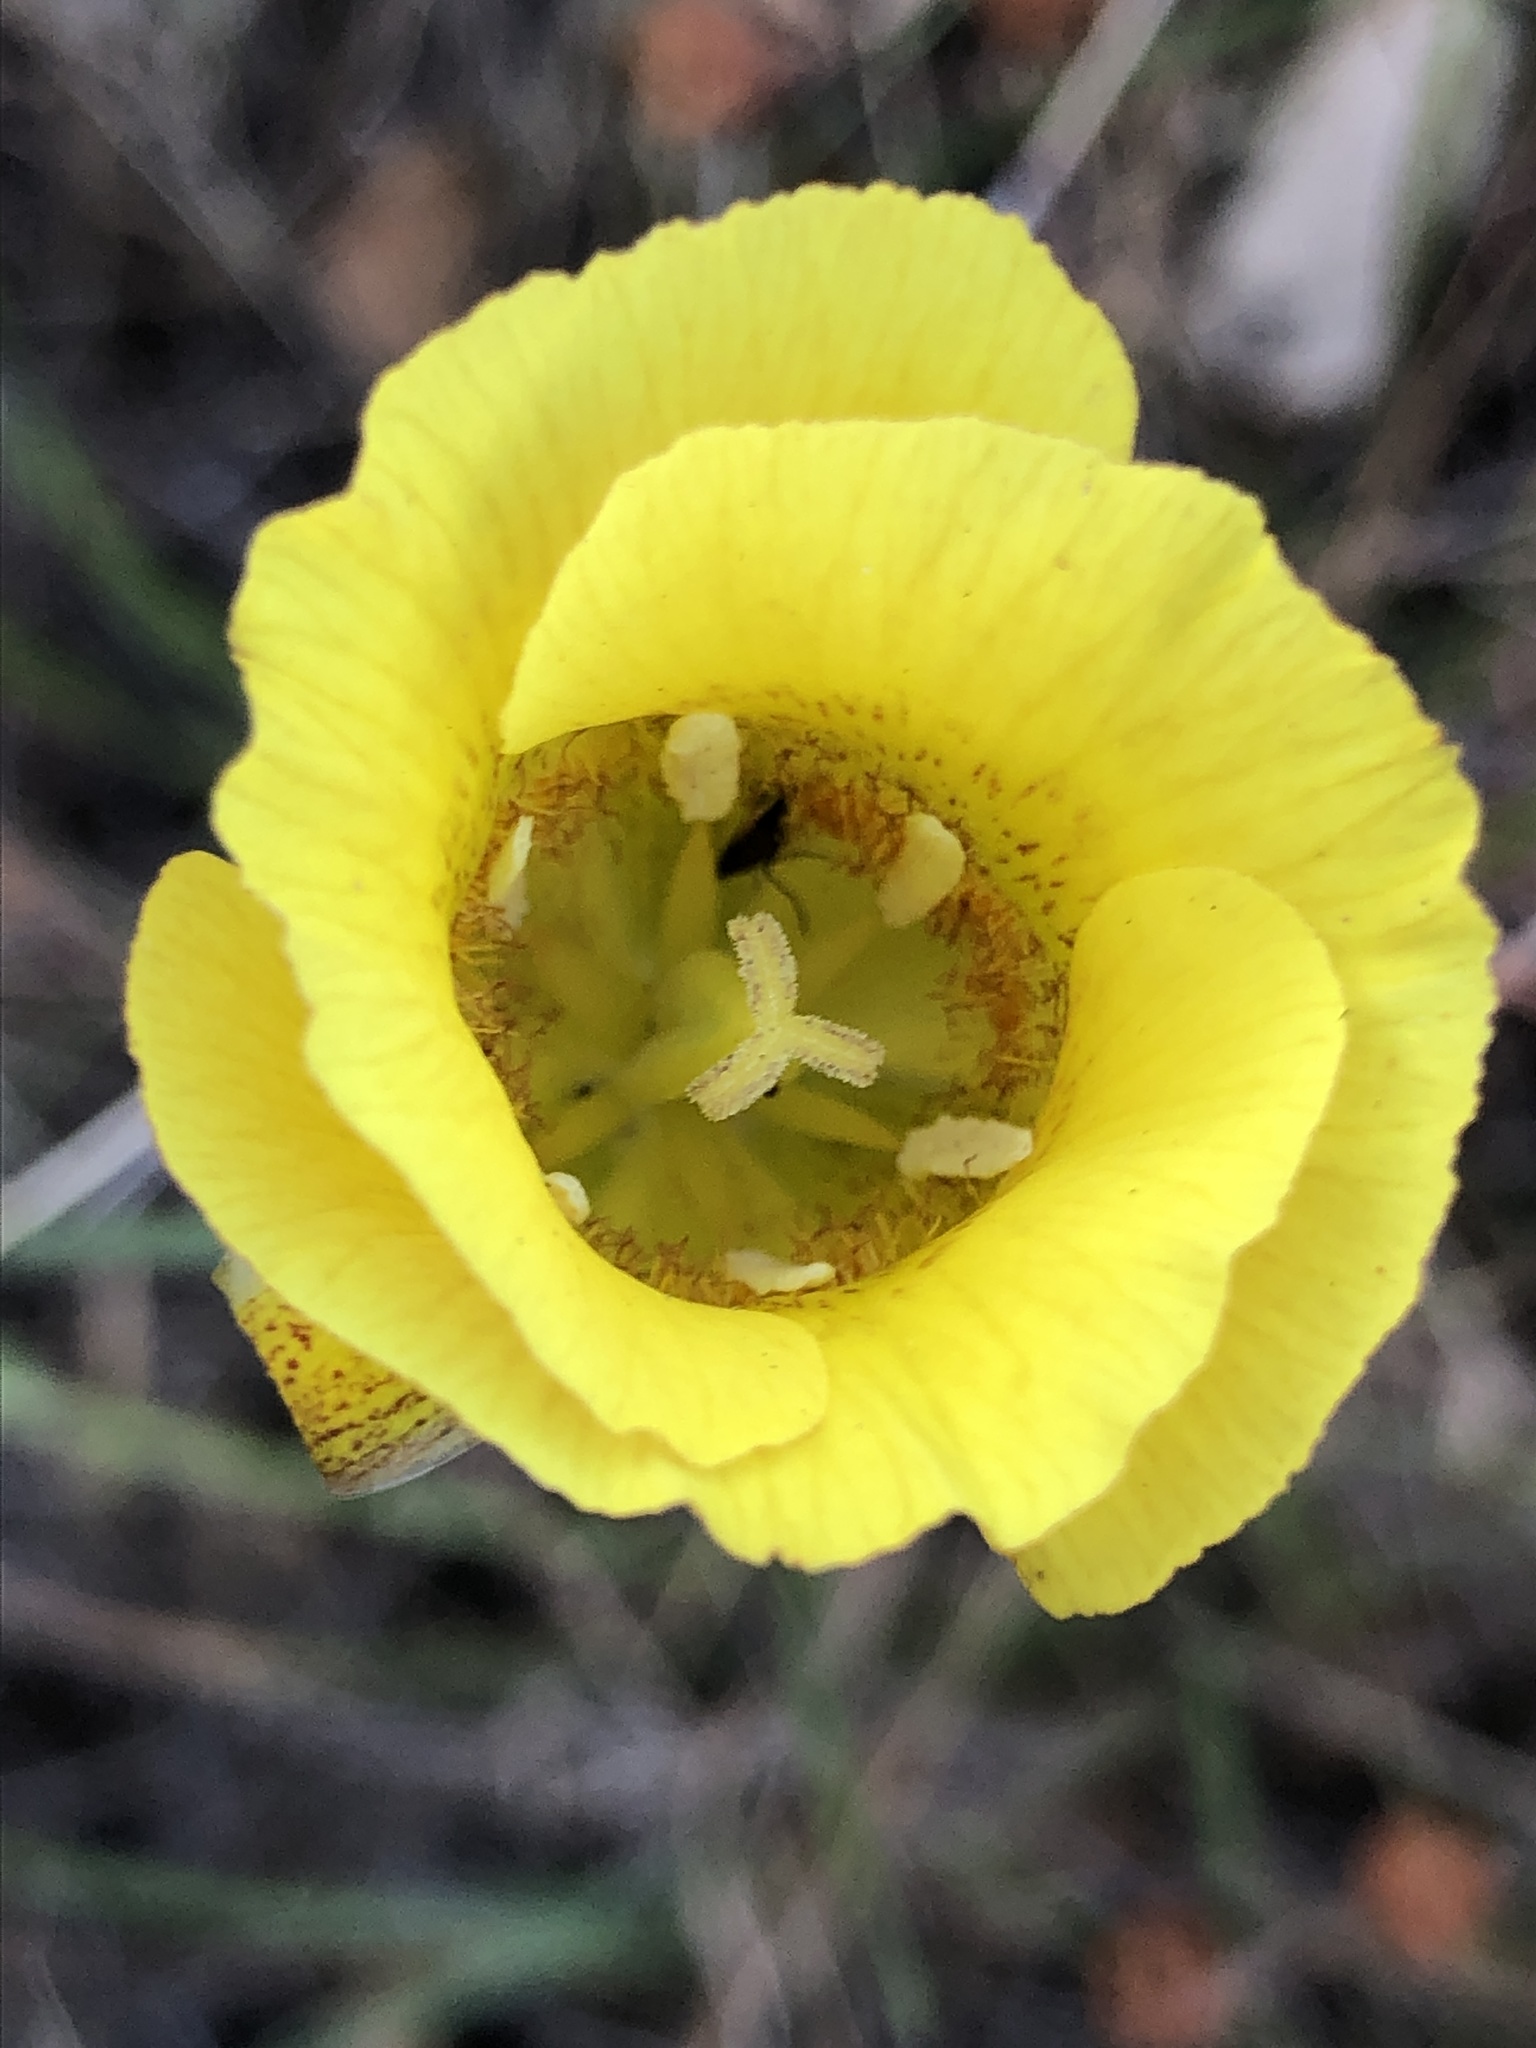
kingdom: Plantae
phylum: Tracheophyta
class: Liliopsida
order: Liliales
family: Liliaceae
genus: Calochortus
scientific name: Calochortus luteus
